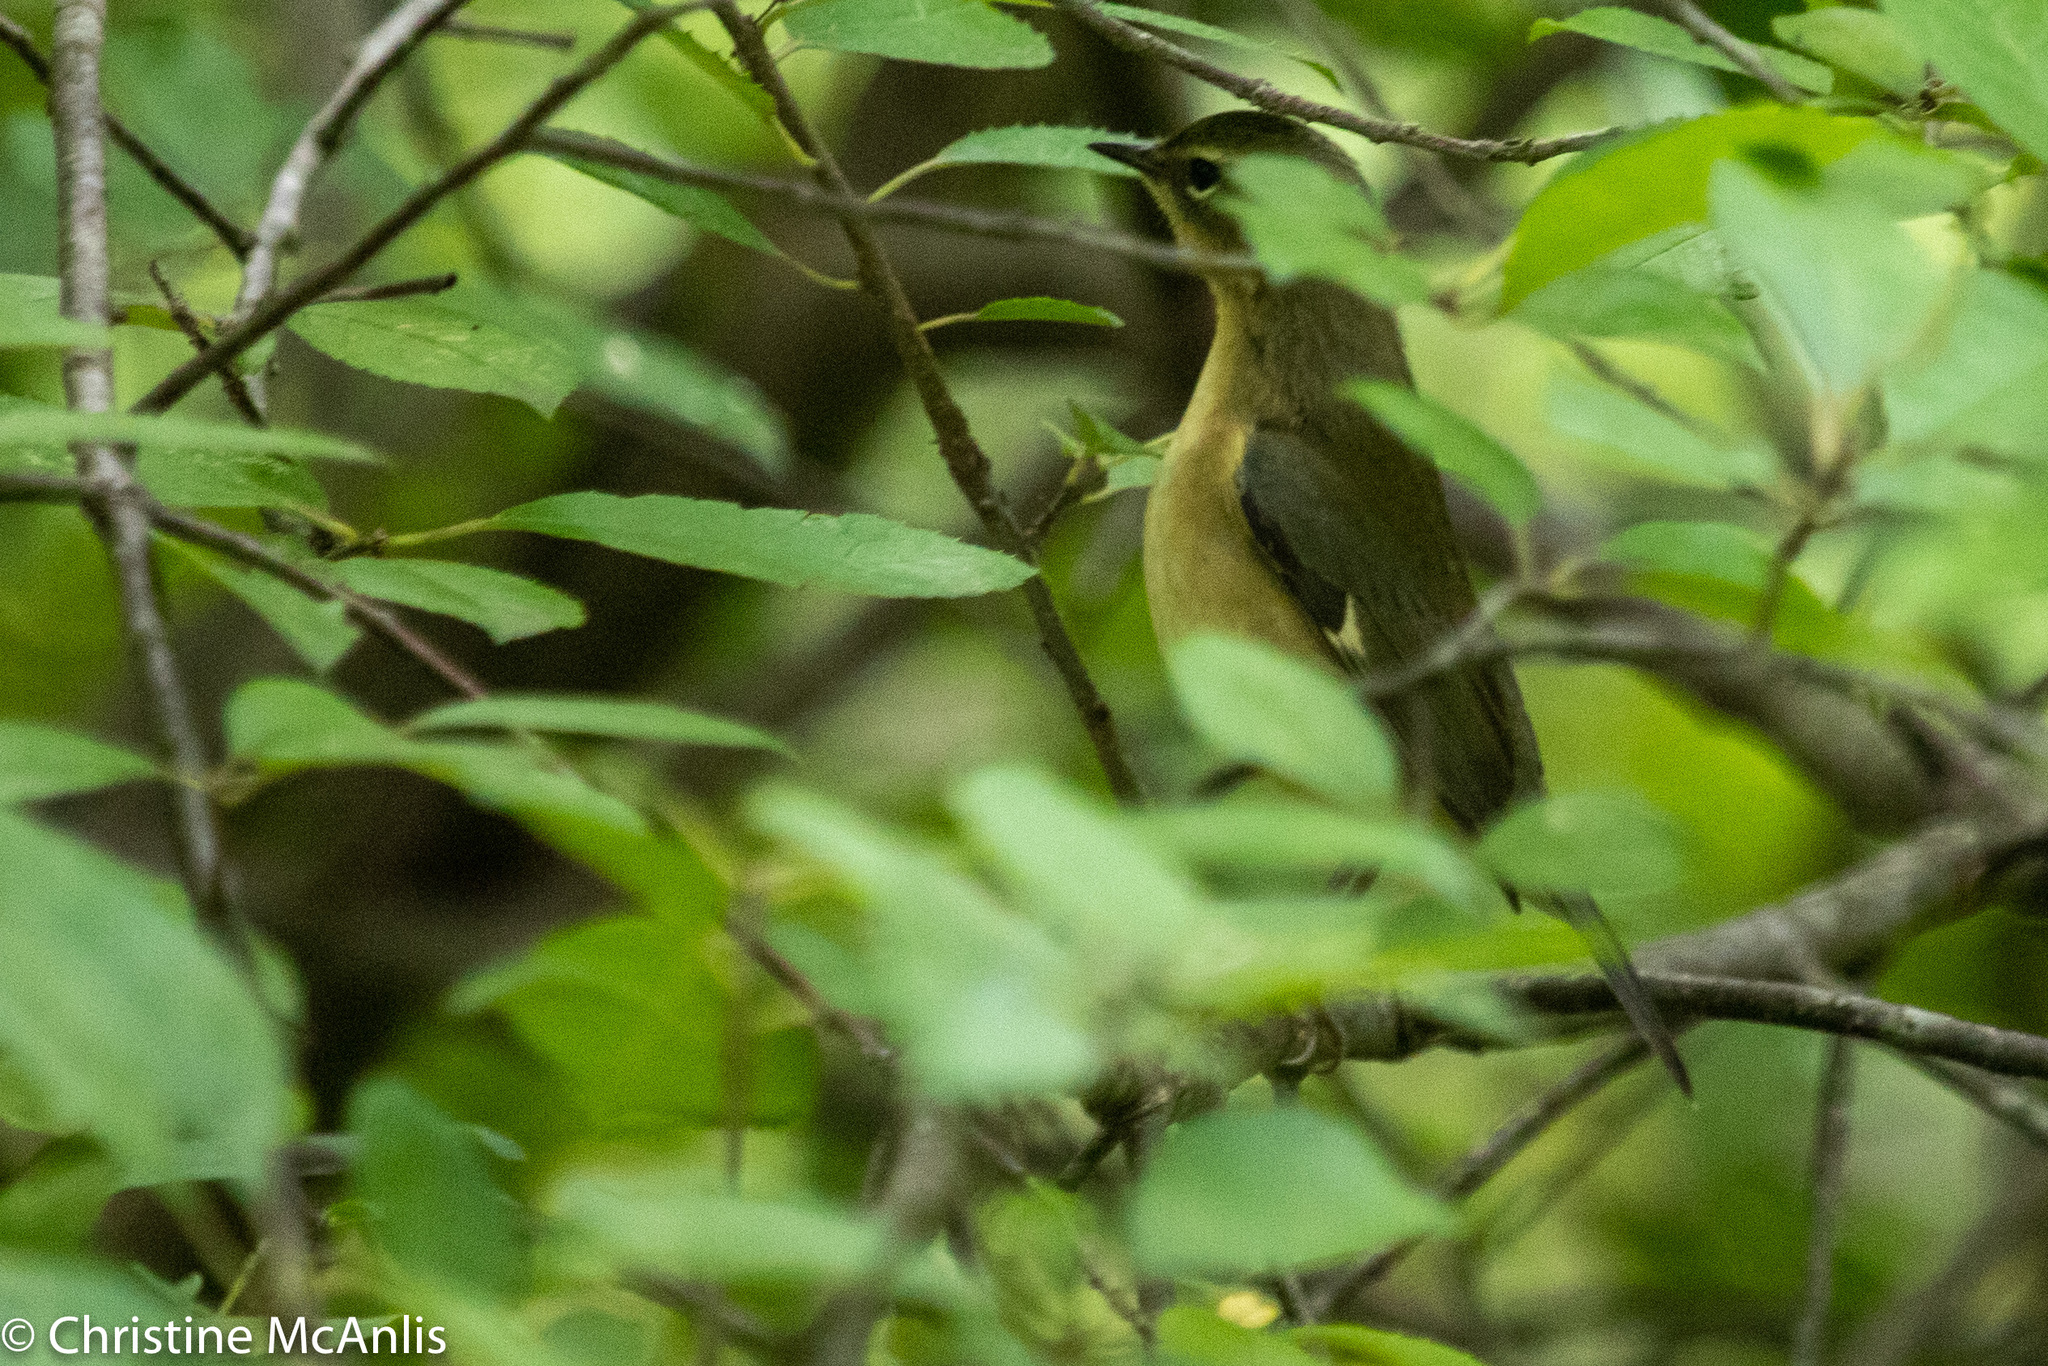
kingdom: Animalia
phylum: Chordata
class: Aves
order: Passeriformes
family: Parulidae
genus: Setophaga
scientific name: Setophaga caerulescens
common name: Black-throated blue warbler
